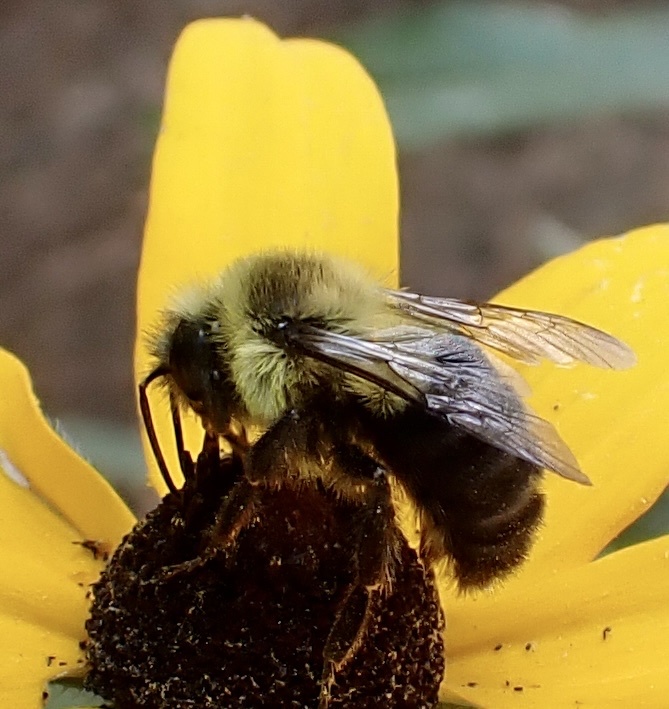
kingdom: Animalia
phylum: Arthropoda
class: Insecta
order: Hymenoptera
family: Apidae
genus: Bombus
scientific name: Bombus impatiens
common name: Common eastern bumble bee
